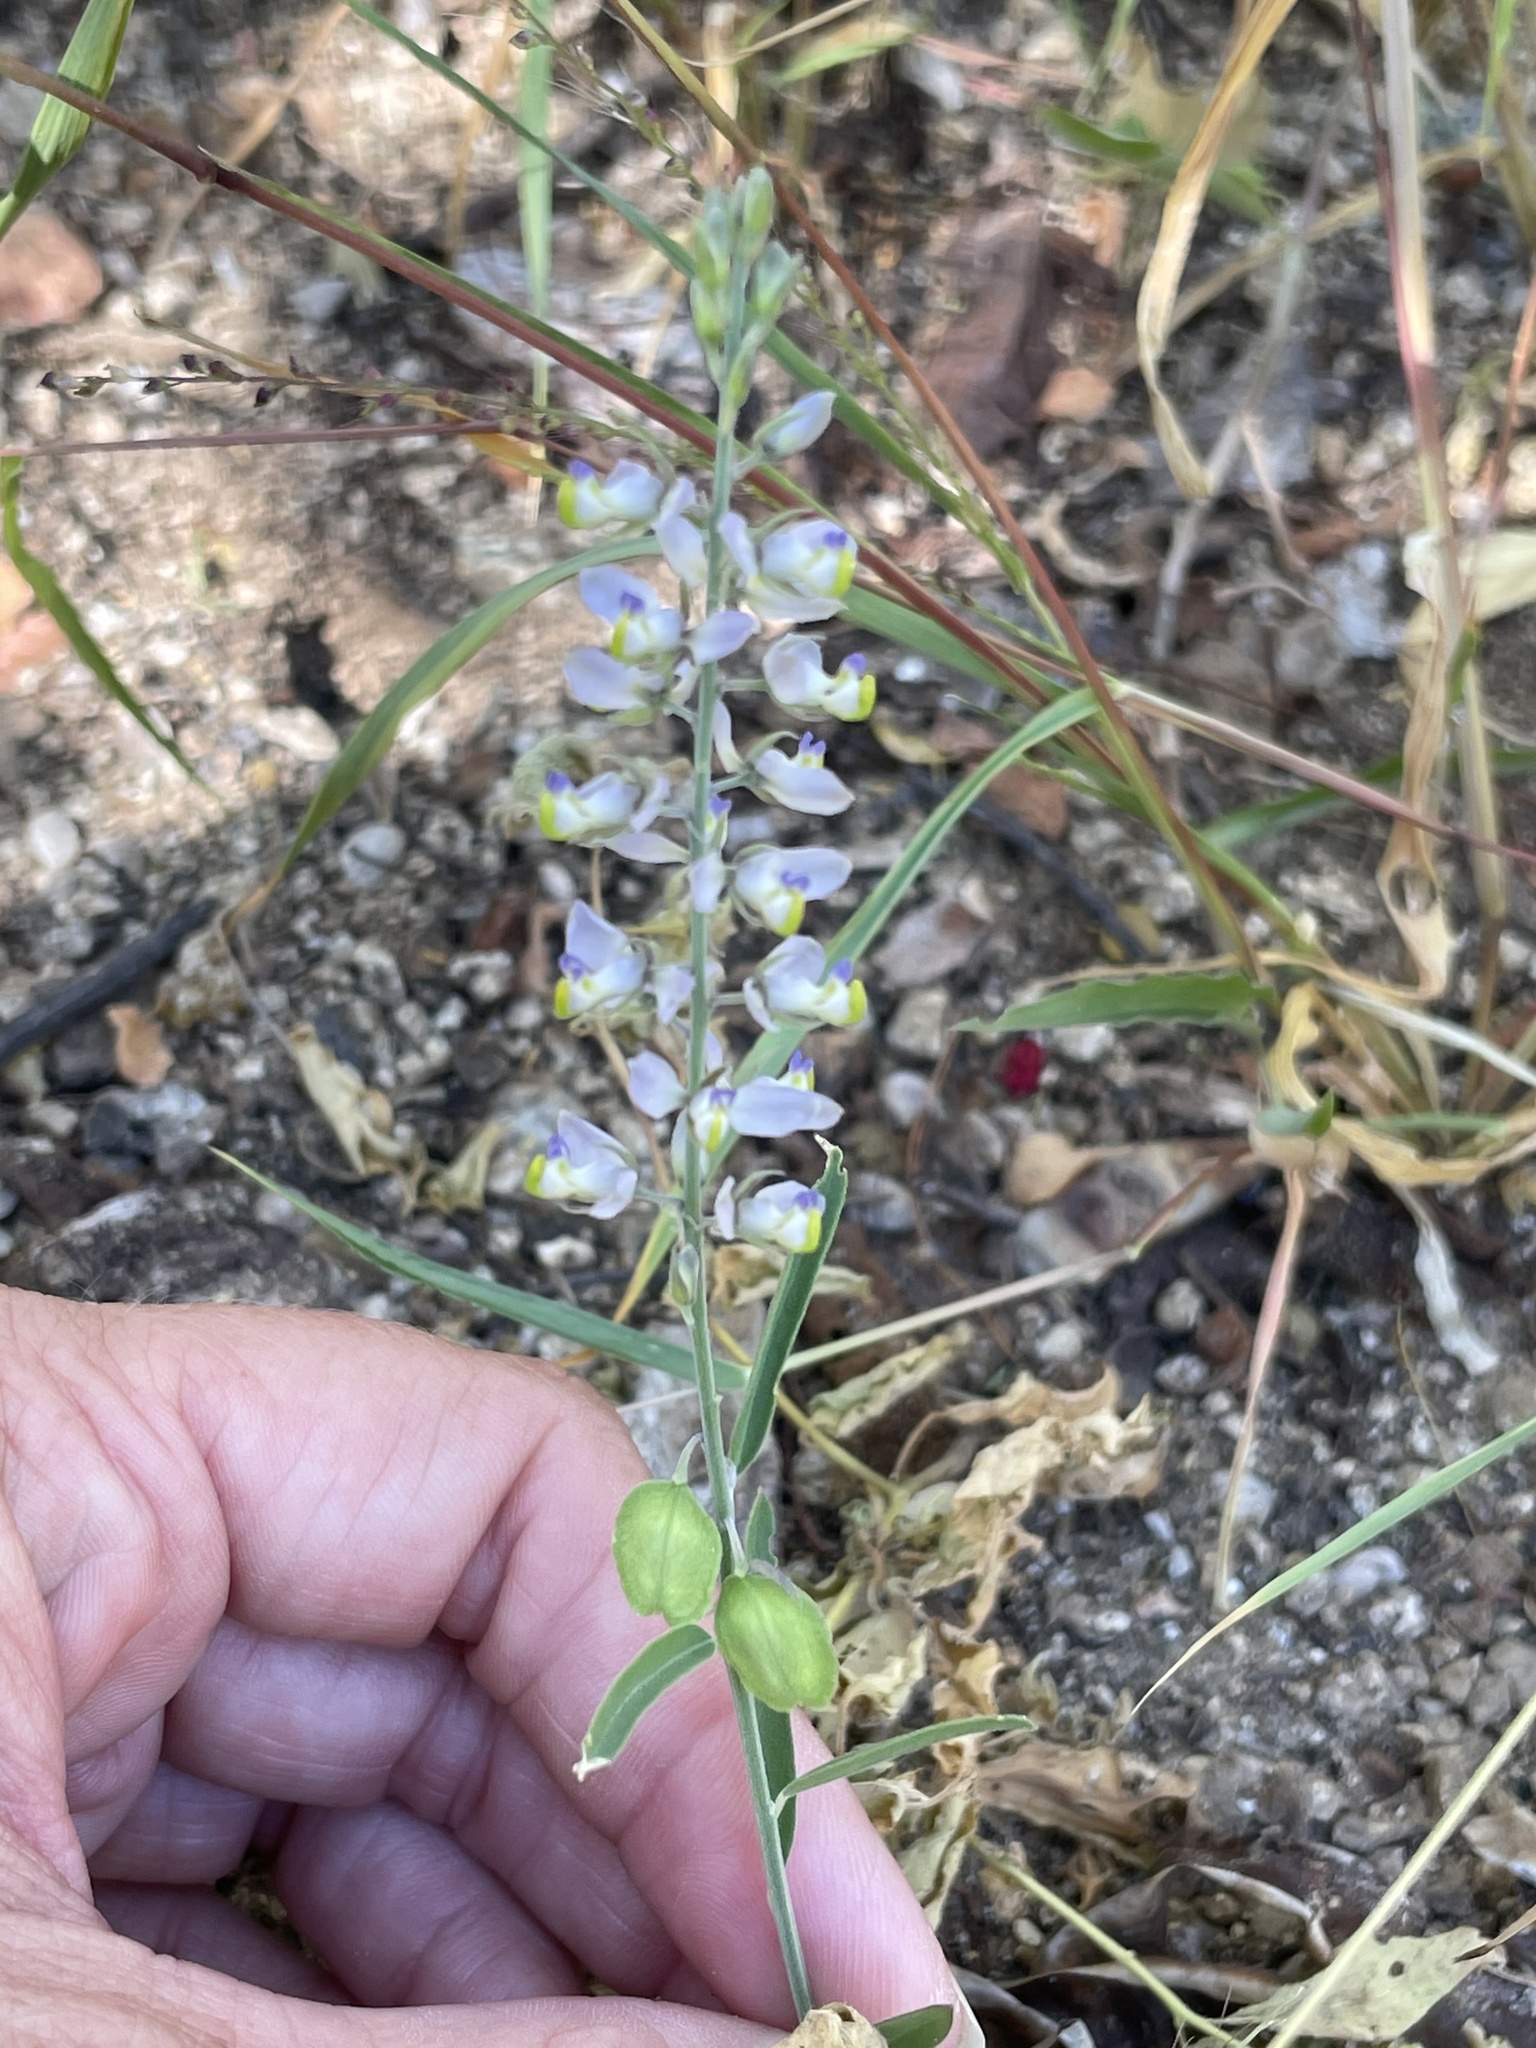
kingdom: Plantae
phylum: Tracheophyta
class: Magnoliopsida
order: Fabales
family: Polygalaceae
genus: Polygala
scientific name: Polygala magdalenae
